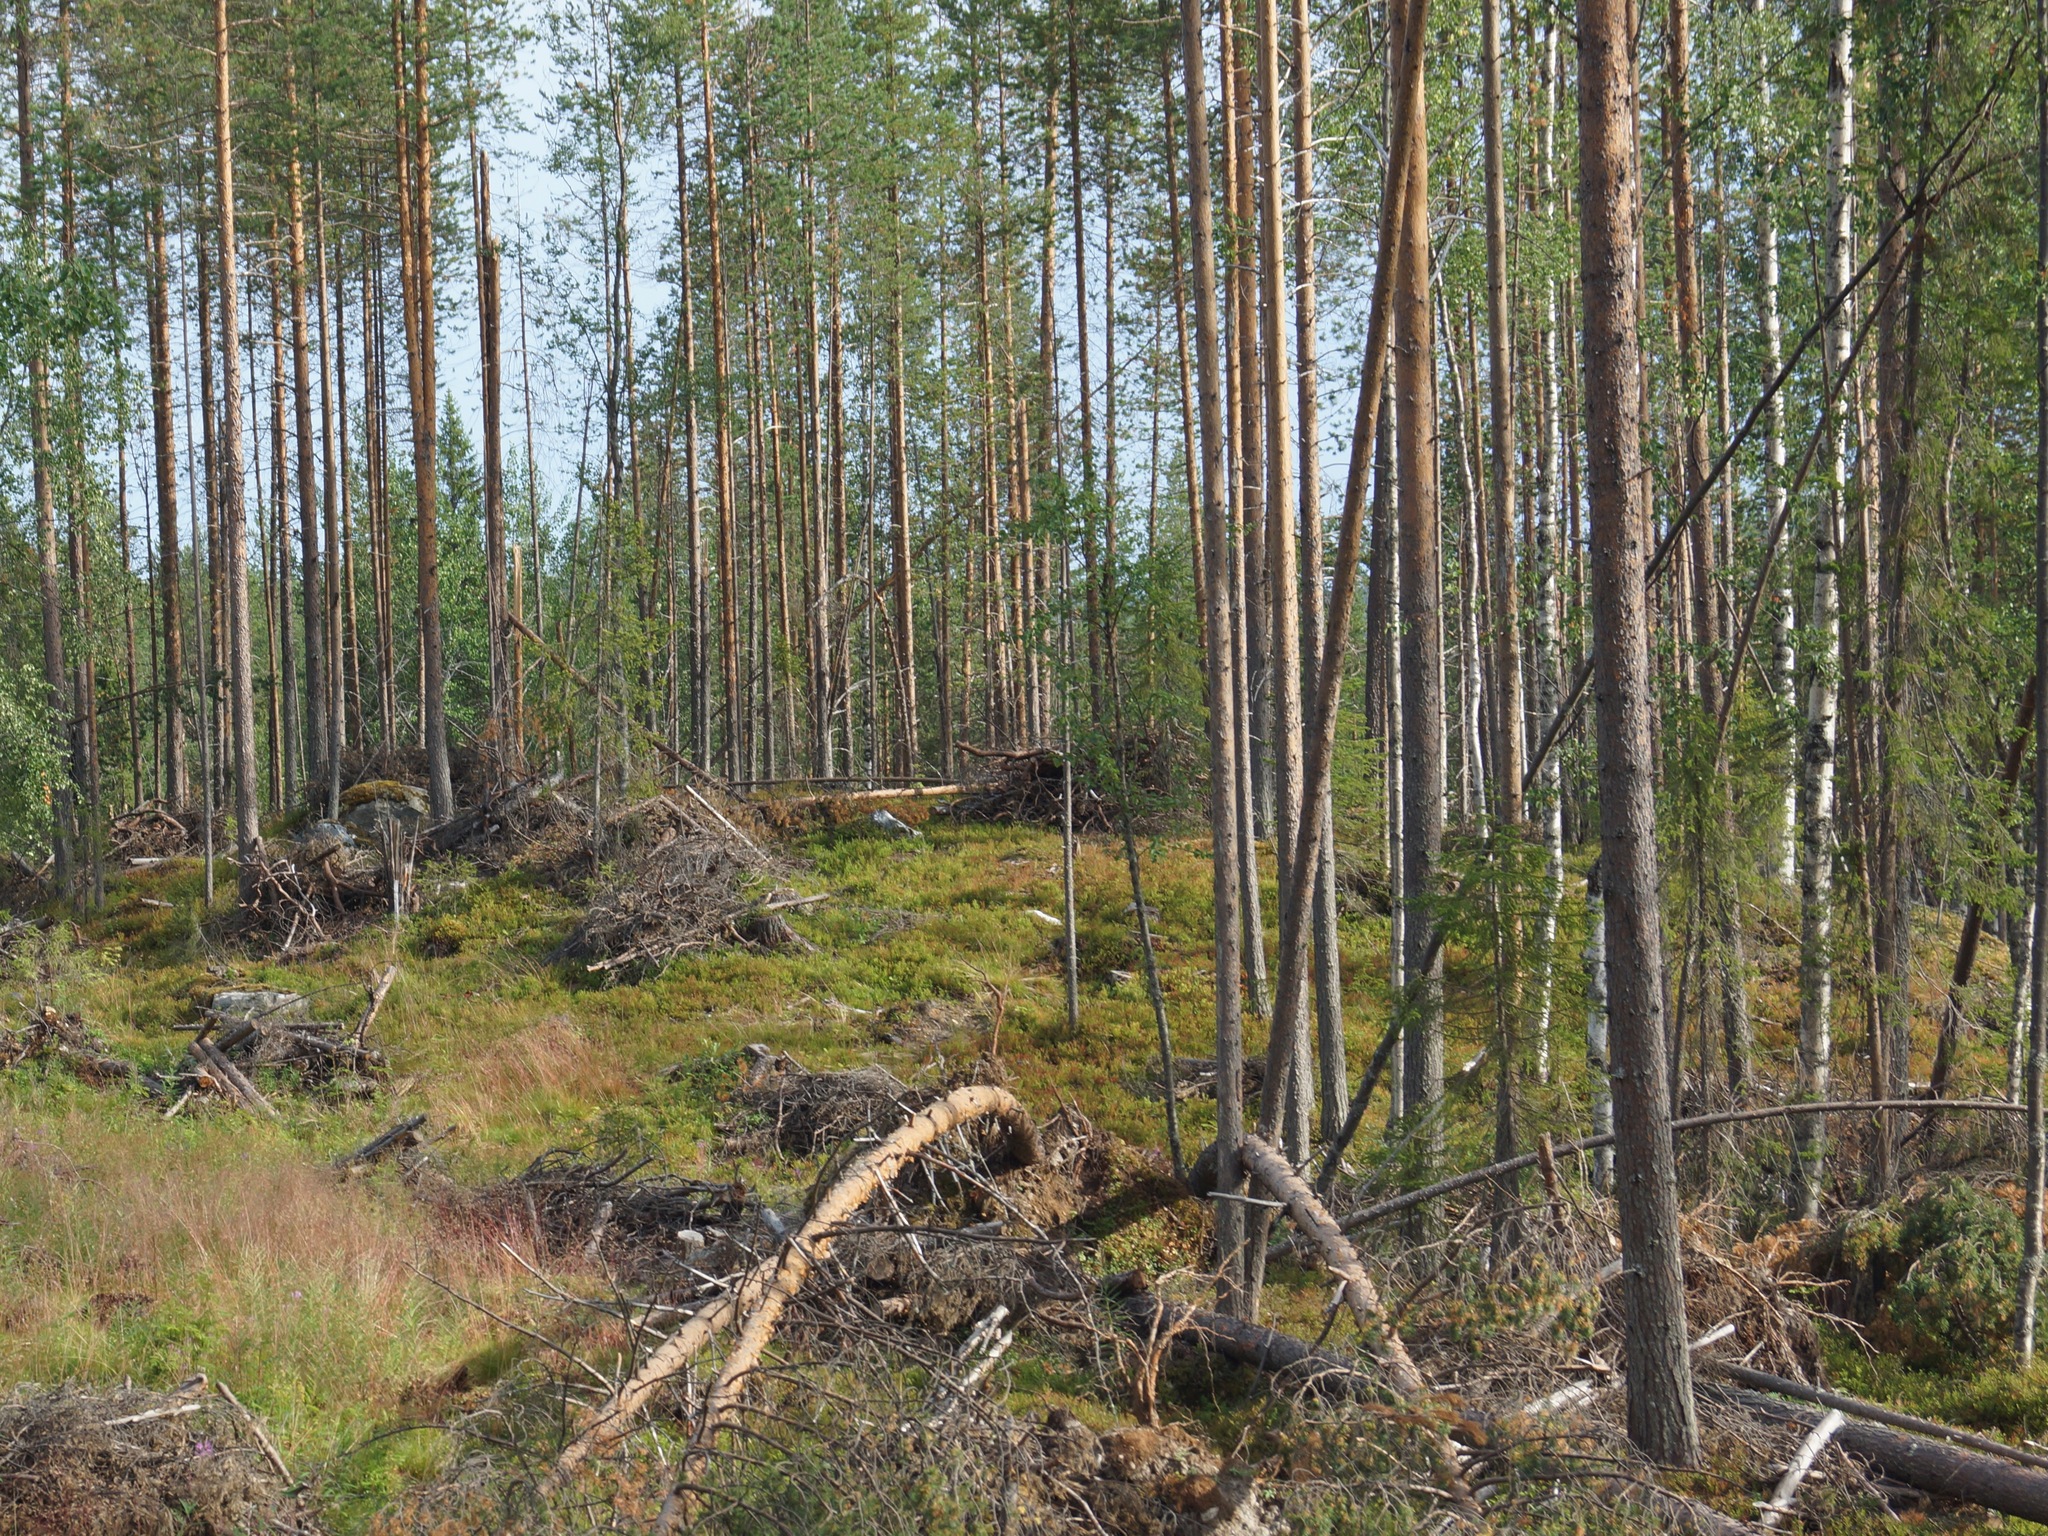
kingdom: Plantae
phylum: Tracheophyta
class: Pinopsida
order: Pinales
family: Pinaceae
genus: Pinus
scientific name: Pinus sylvestris
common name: Scots pine
